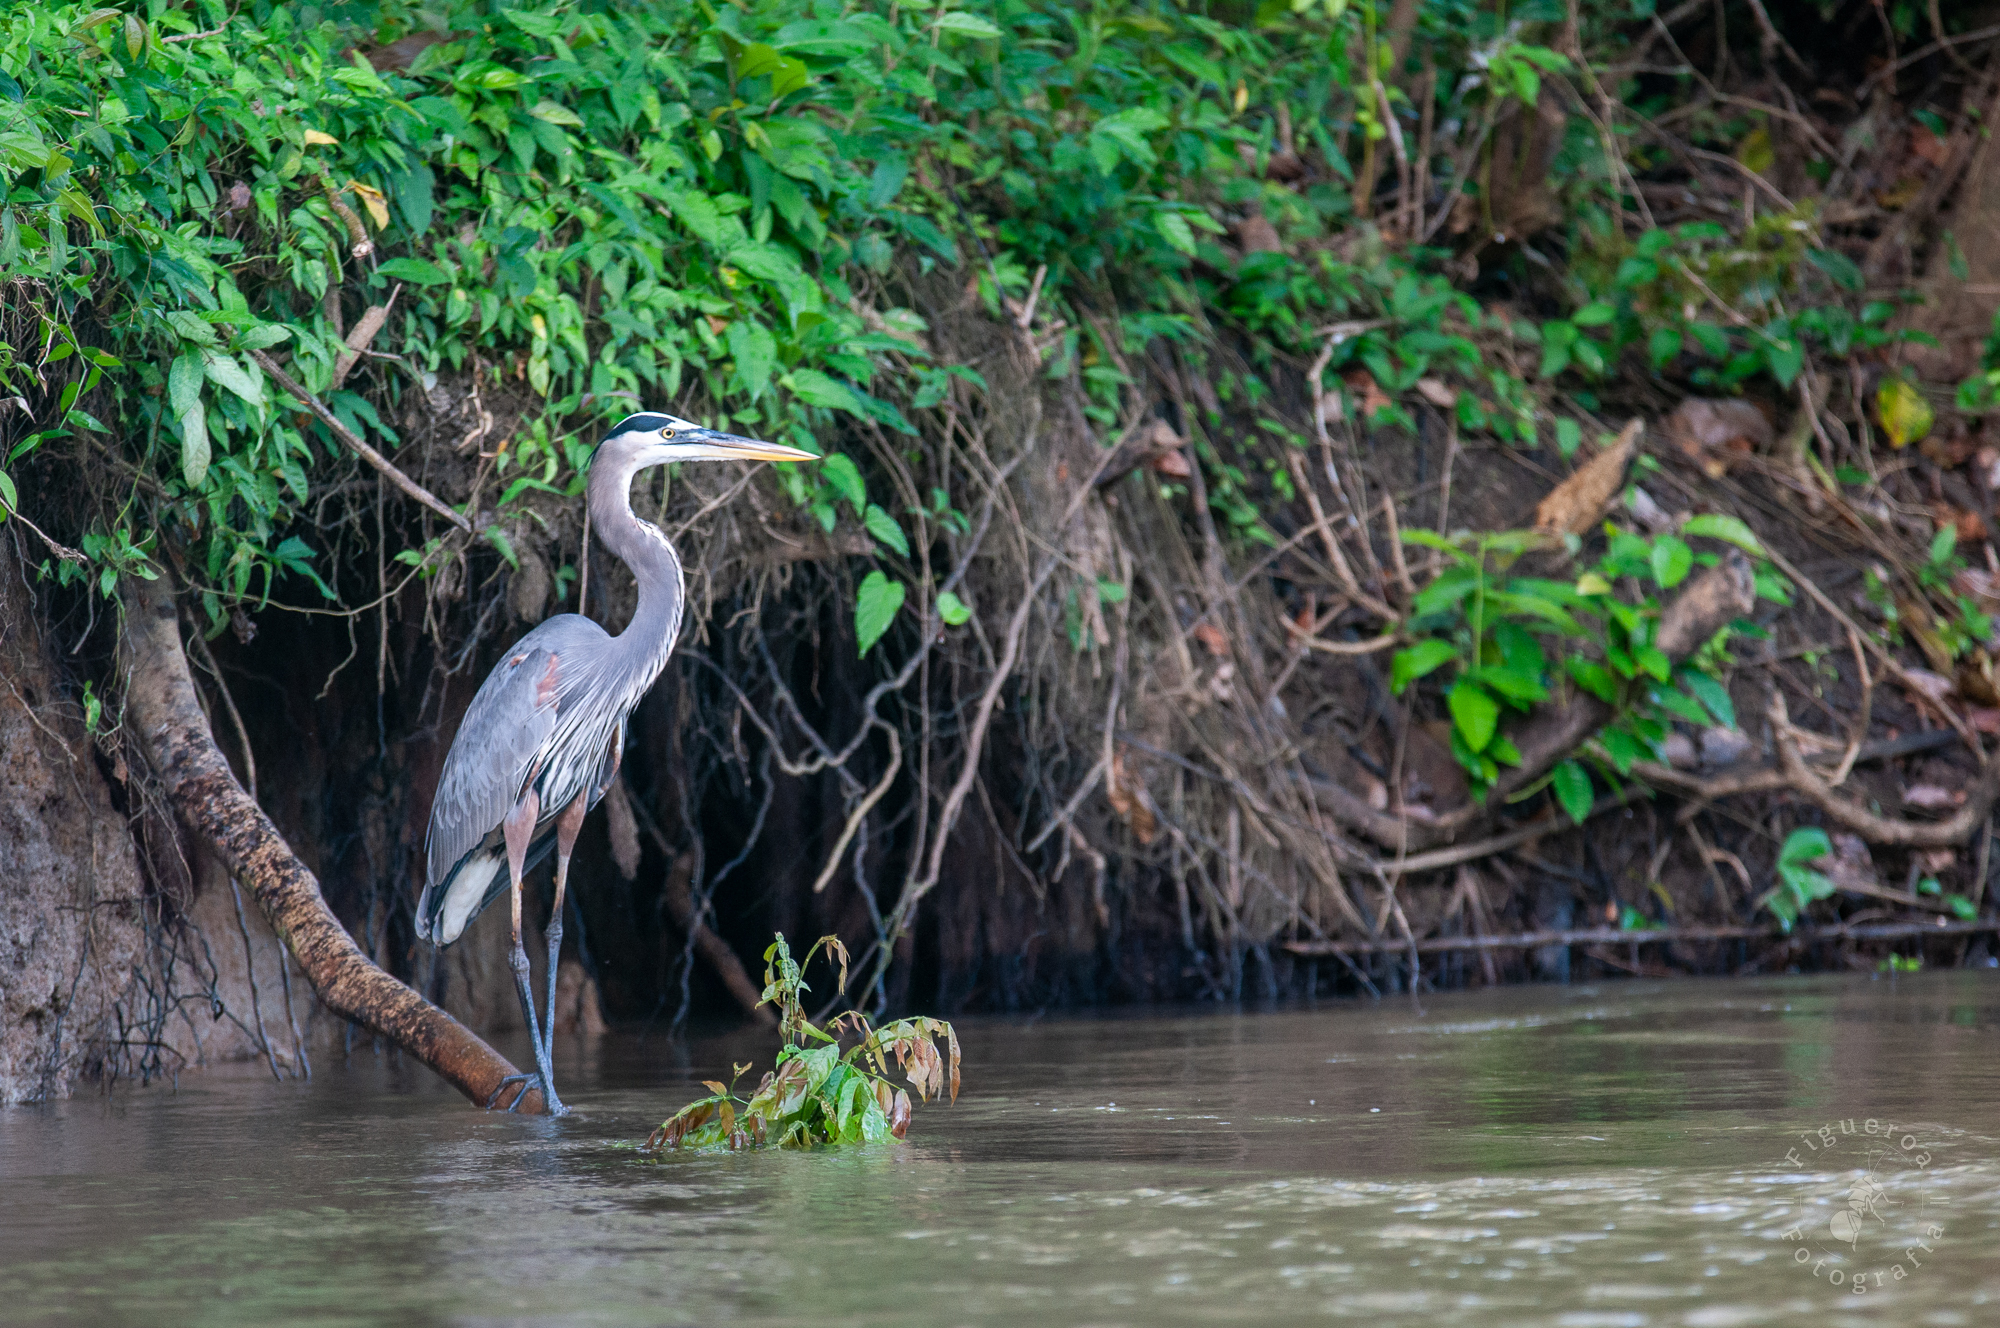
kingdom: Animalia
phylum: Chordata
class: Aves
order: Pelecaniformes
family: Ardeidae
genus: Ardea
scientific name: Ardea herodias
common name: Great blue heron
